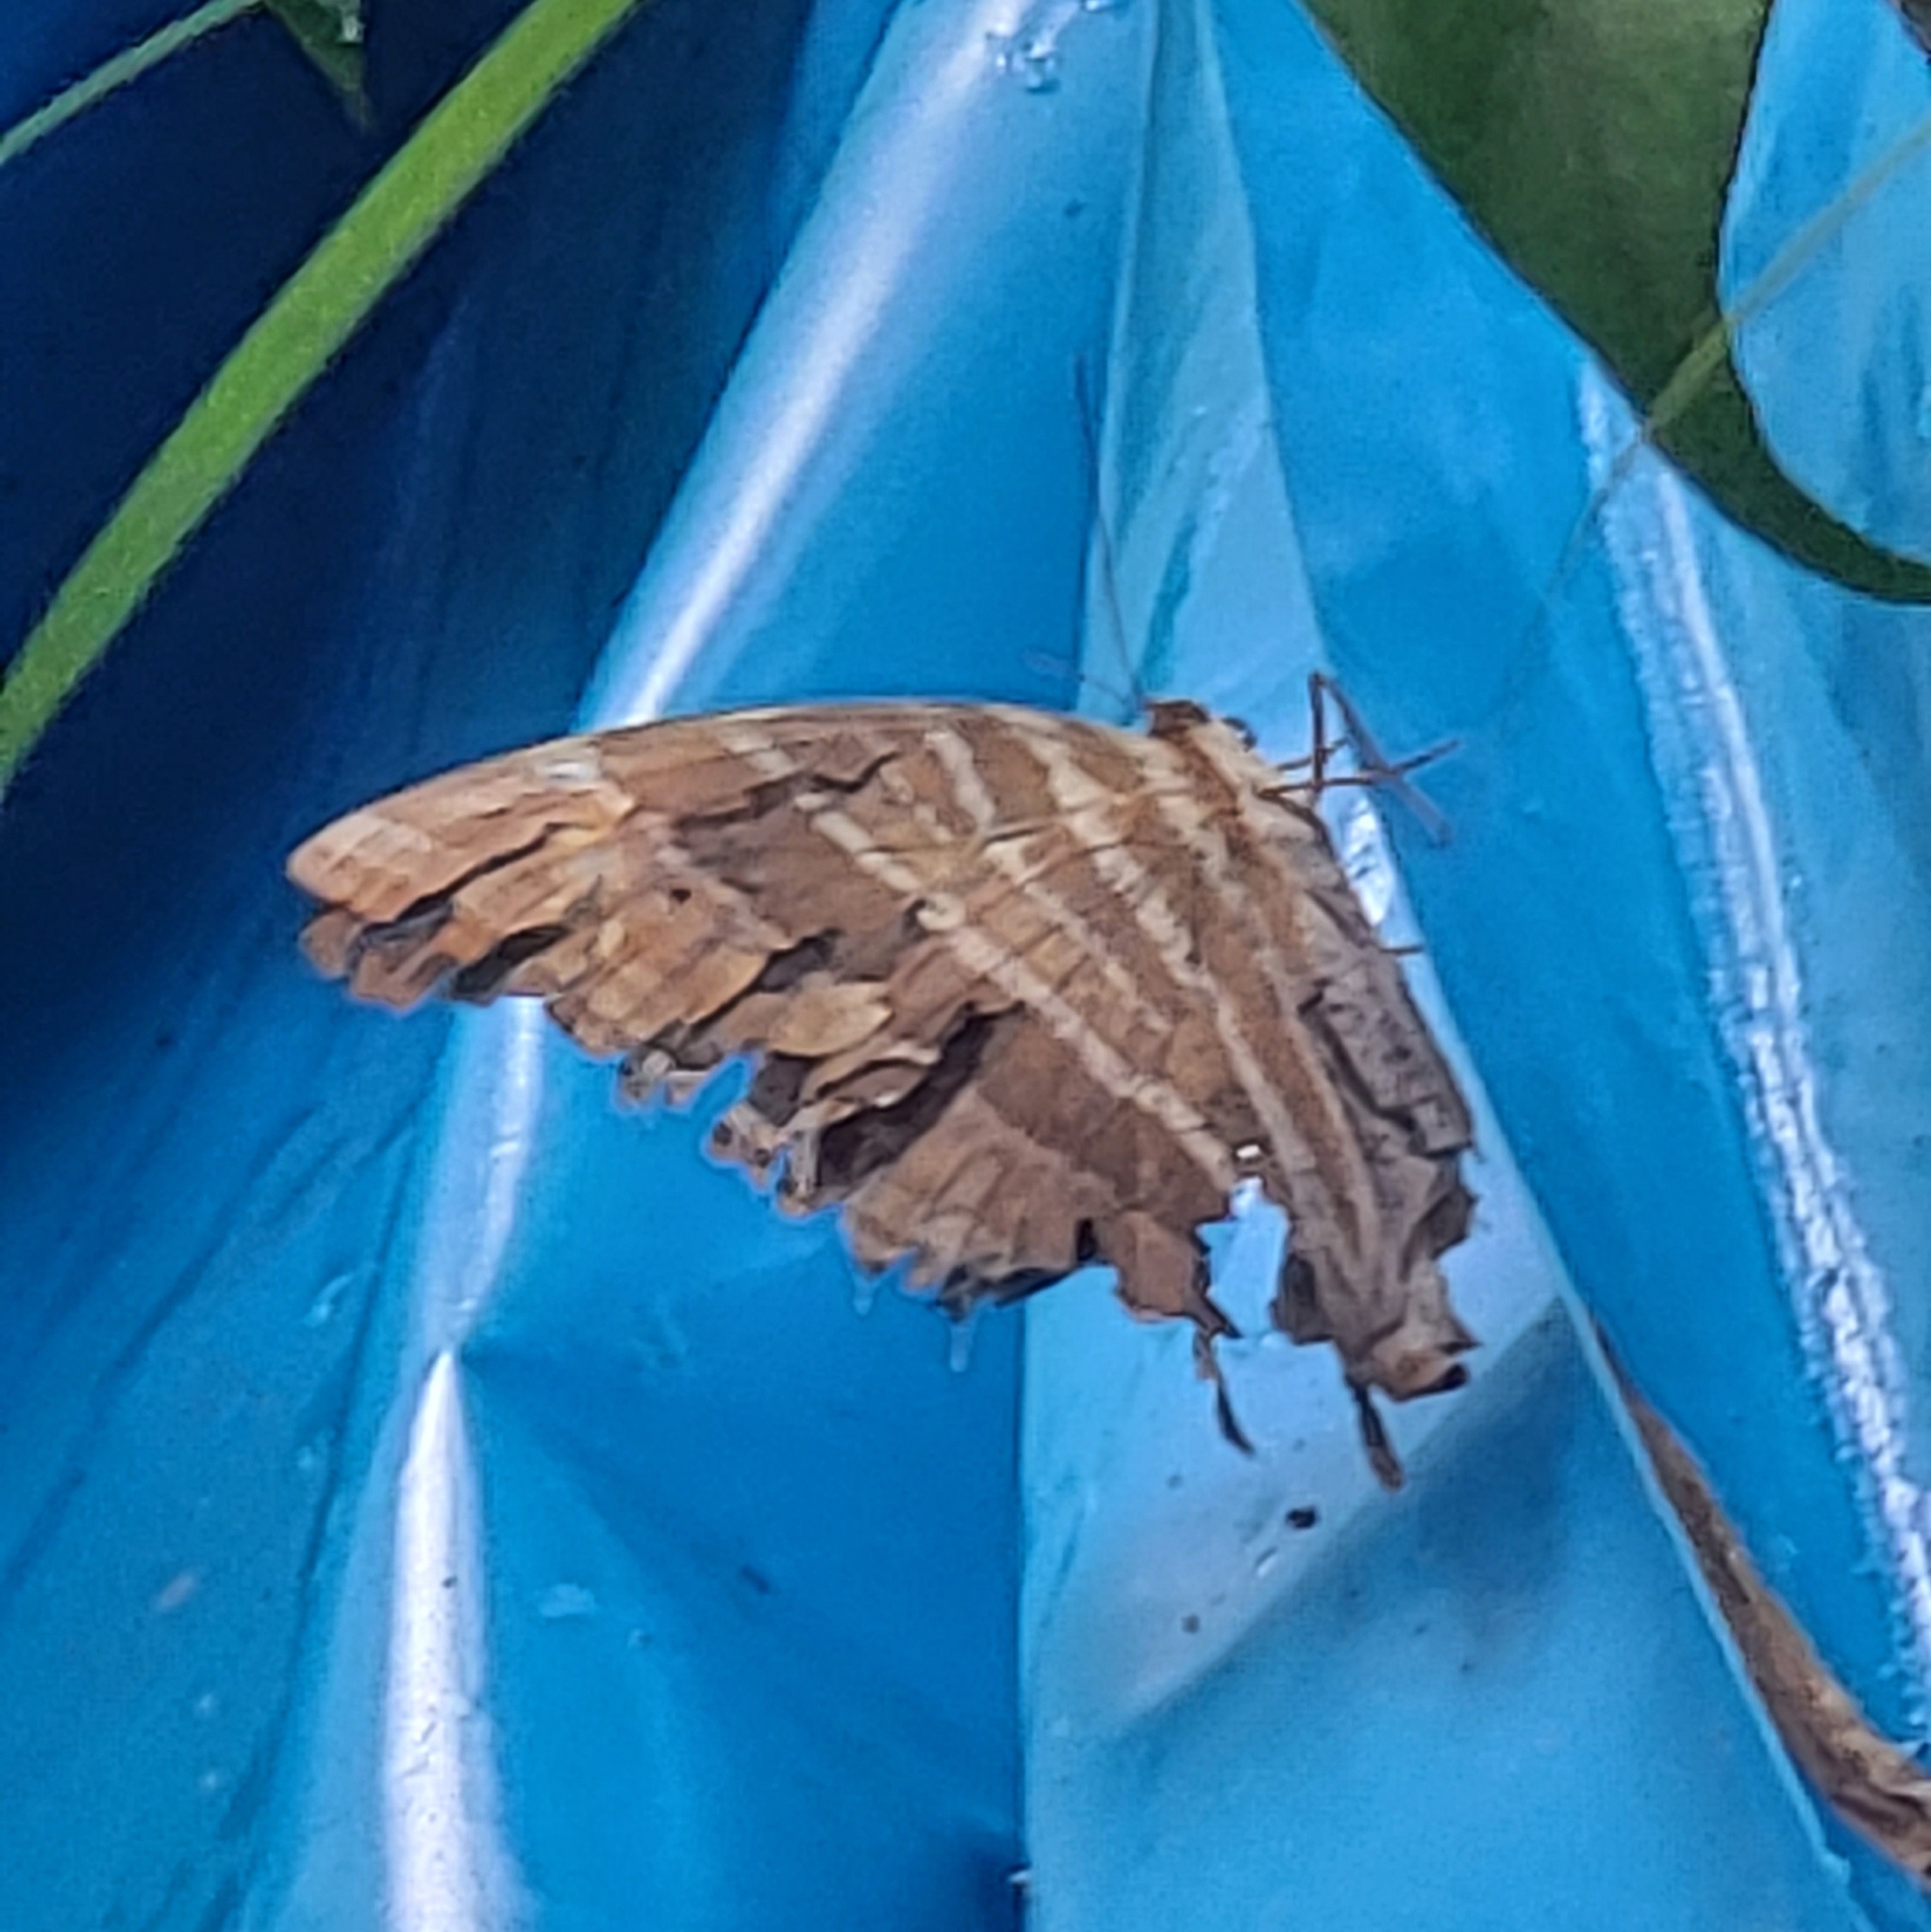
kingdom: Animalia
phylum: Arthropoda
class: Insecta
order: Lepidoptera
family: Nymphalidae
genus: Amathusia
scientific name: Amathusia phidippus
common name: Palm king
